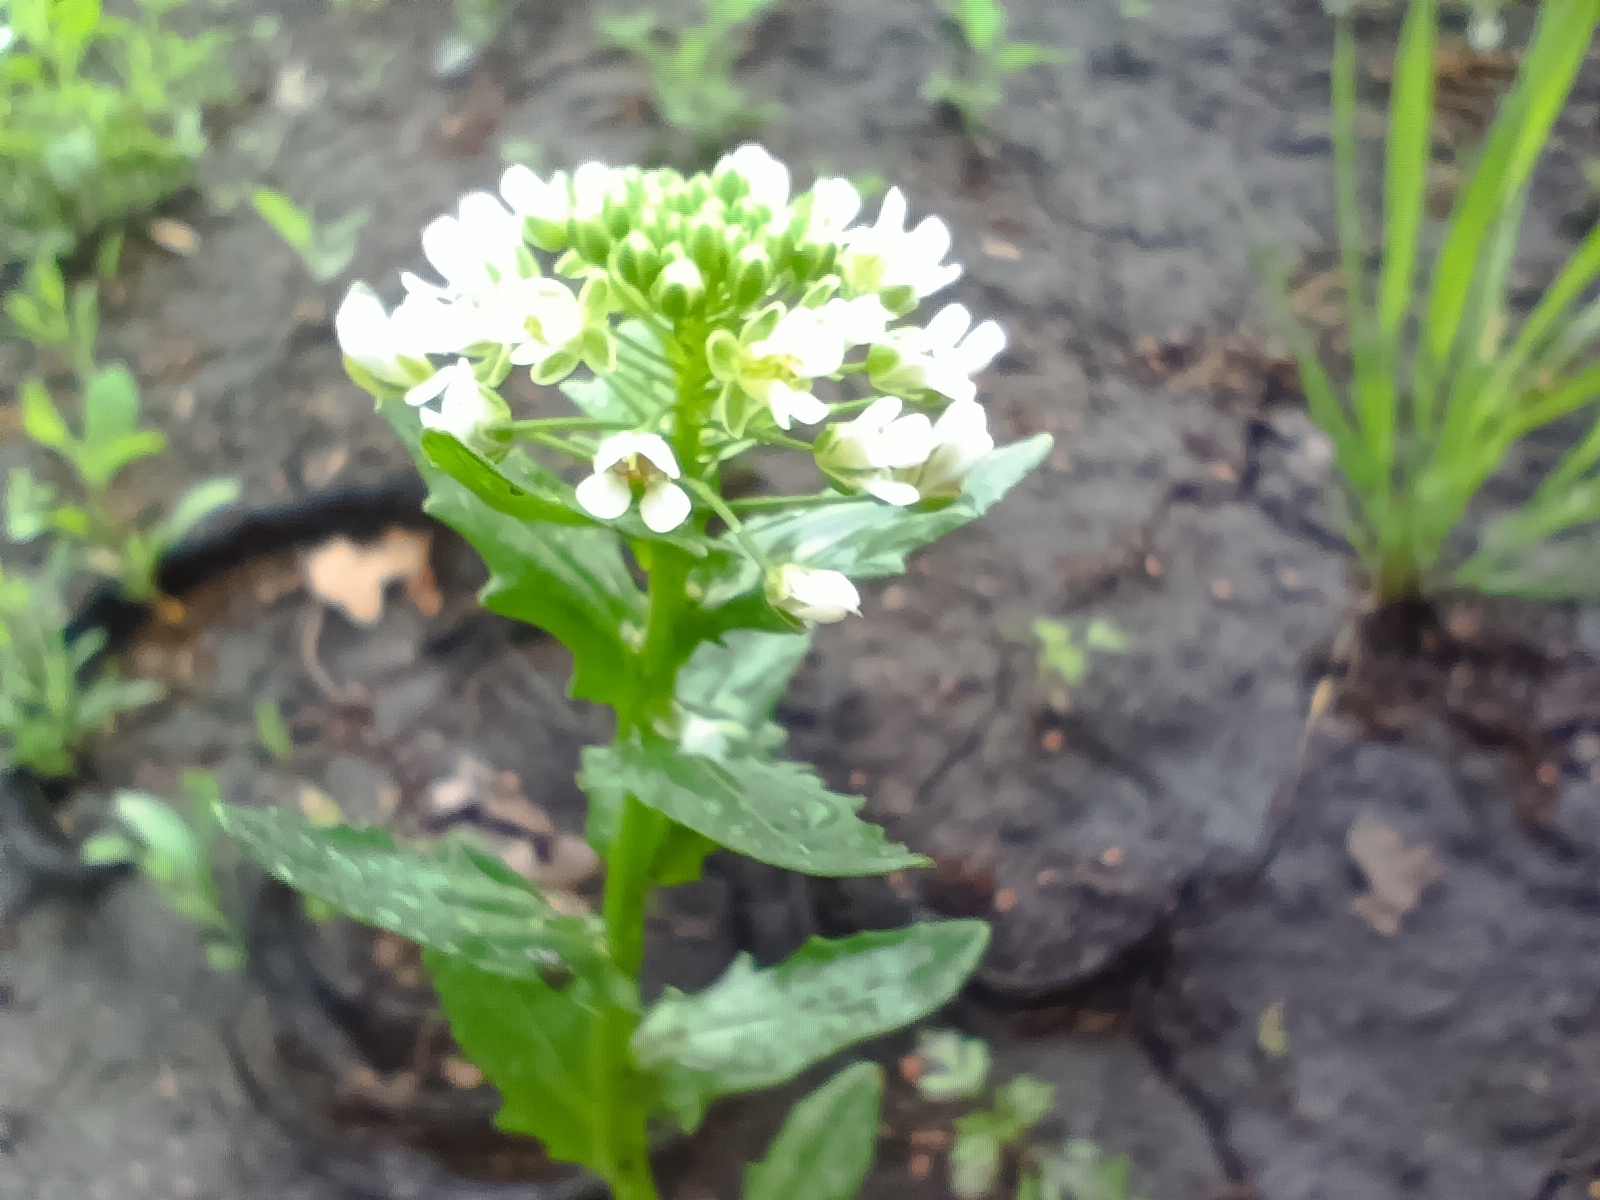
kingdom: Plantae
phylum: Tracheophyta
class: Magnoliopsida
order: Brassicales
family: Brassicaceae
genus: Thlaspi
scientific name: Thlaspi arvense
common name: Field pennycress
